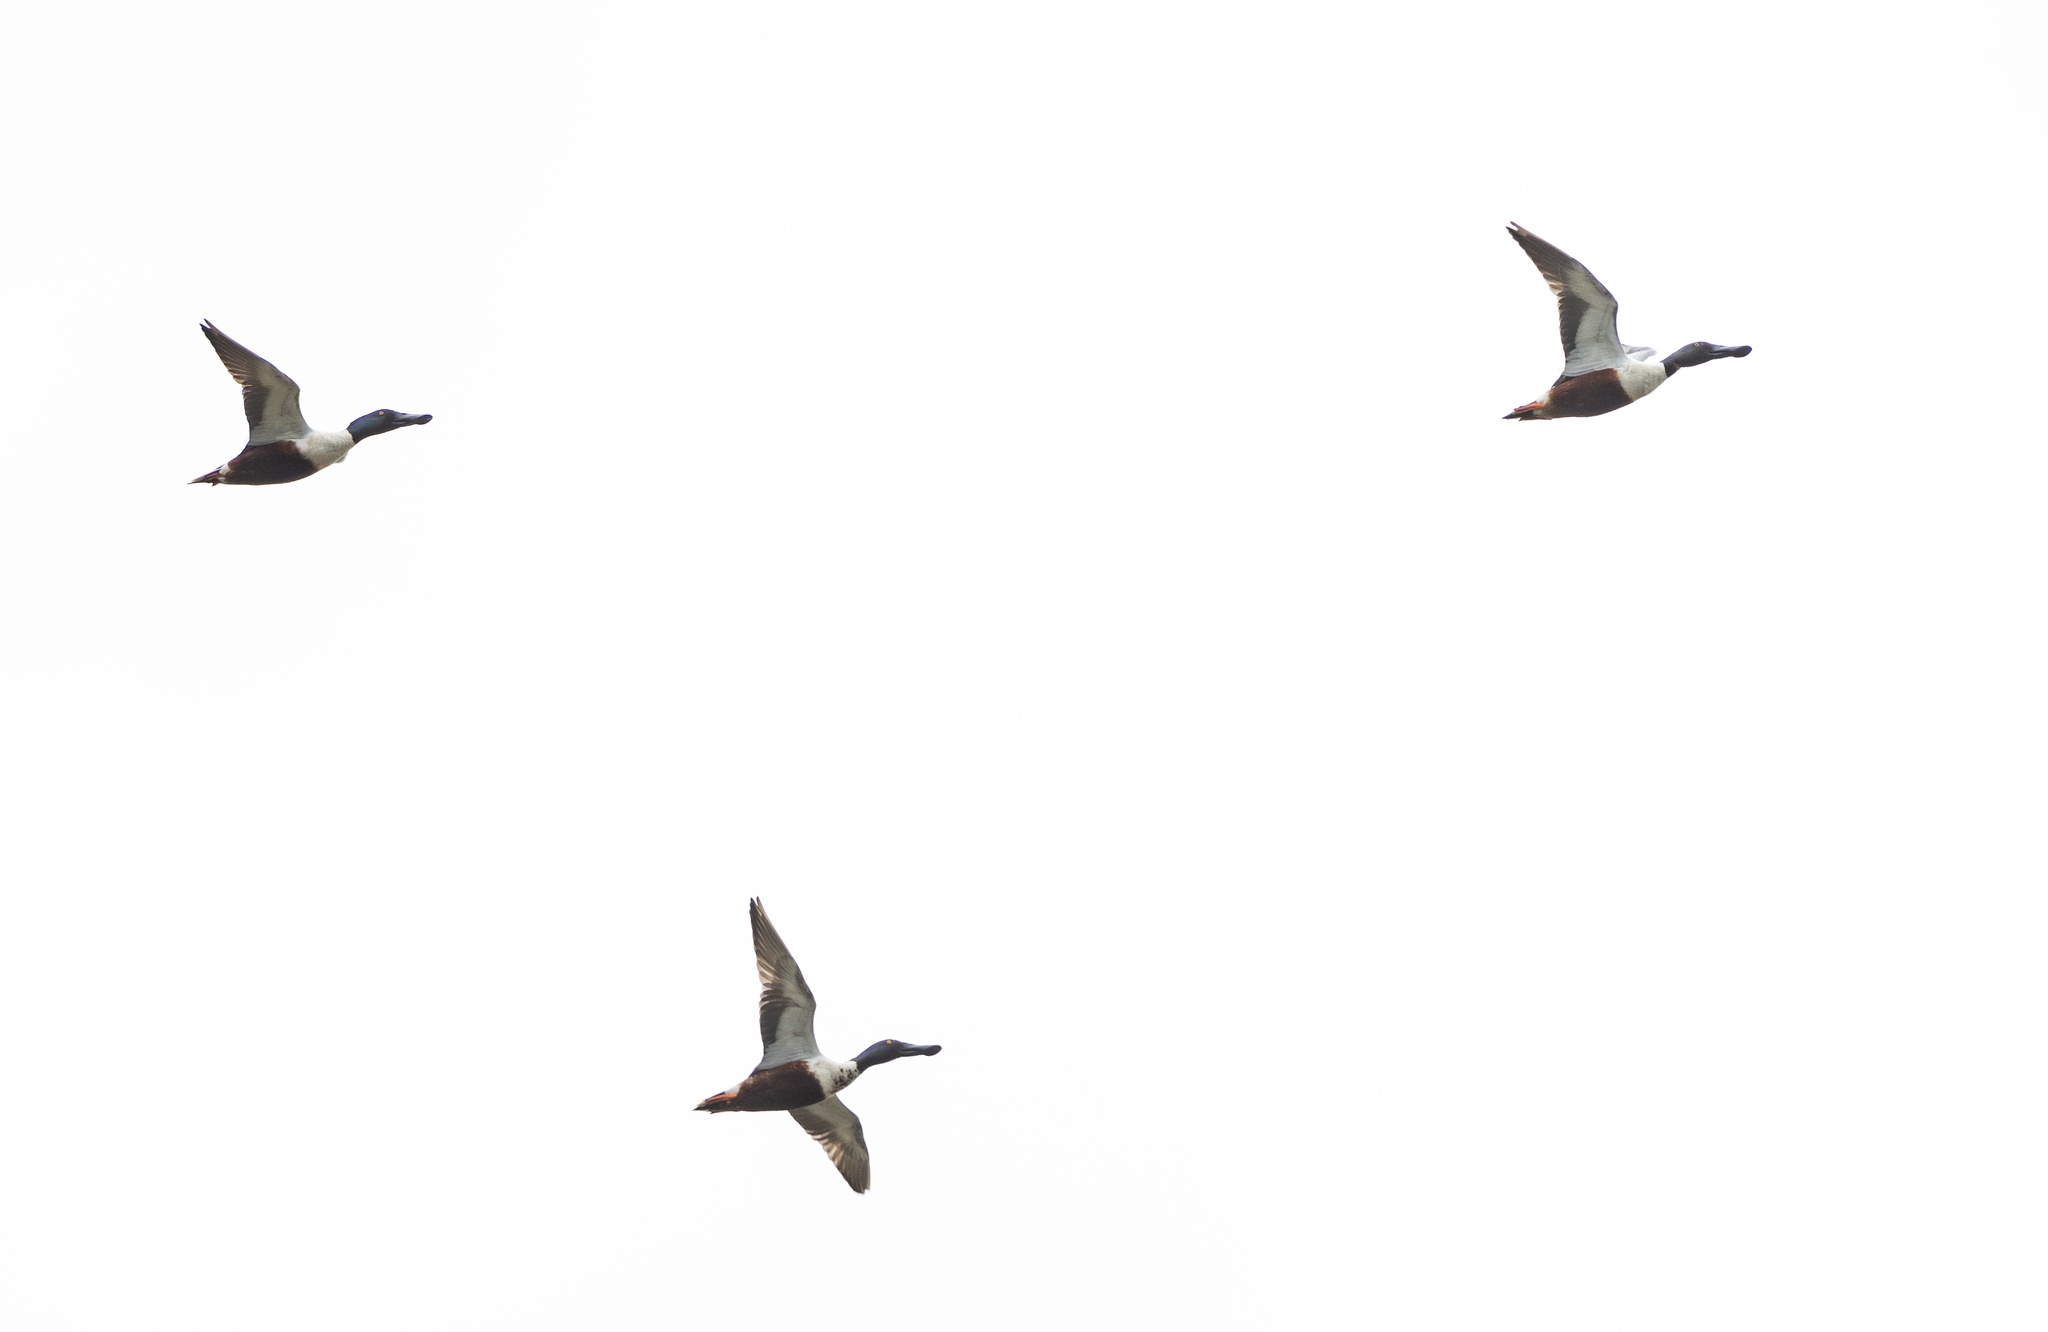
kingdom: Animalia
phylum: Chordata
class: Aves
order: Anseriformes
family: Anatidae
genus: Spatula
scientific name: Spatula clypeata
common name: Northern shoveler
